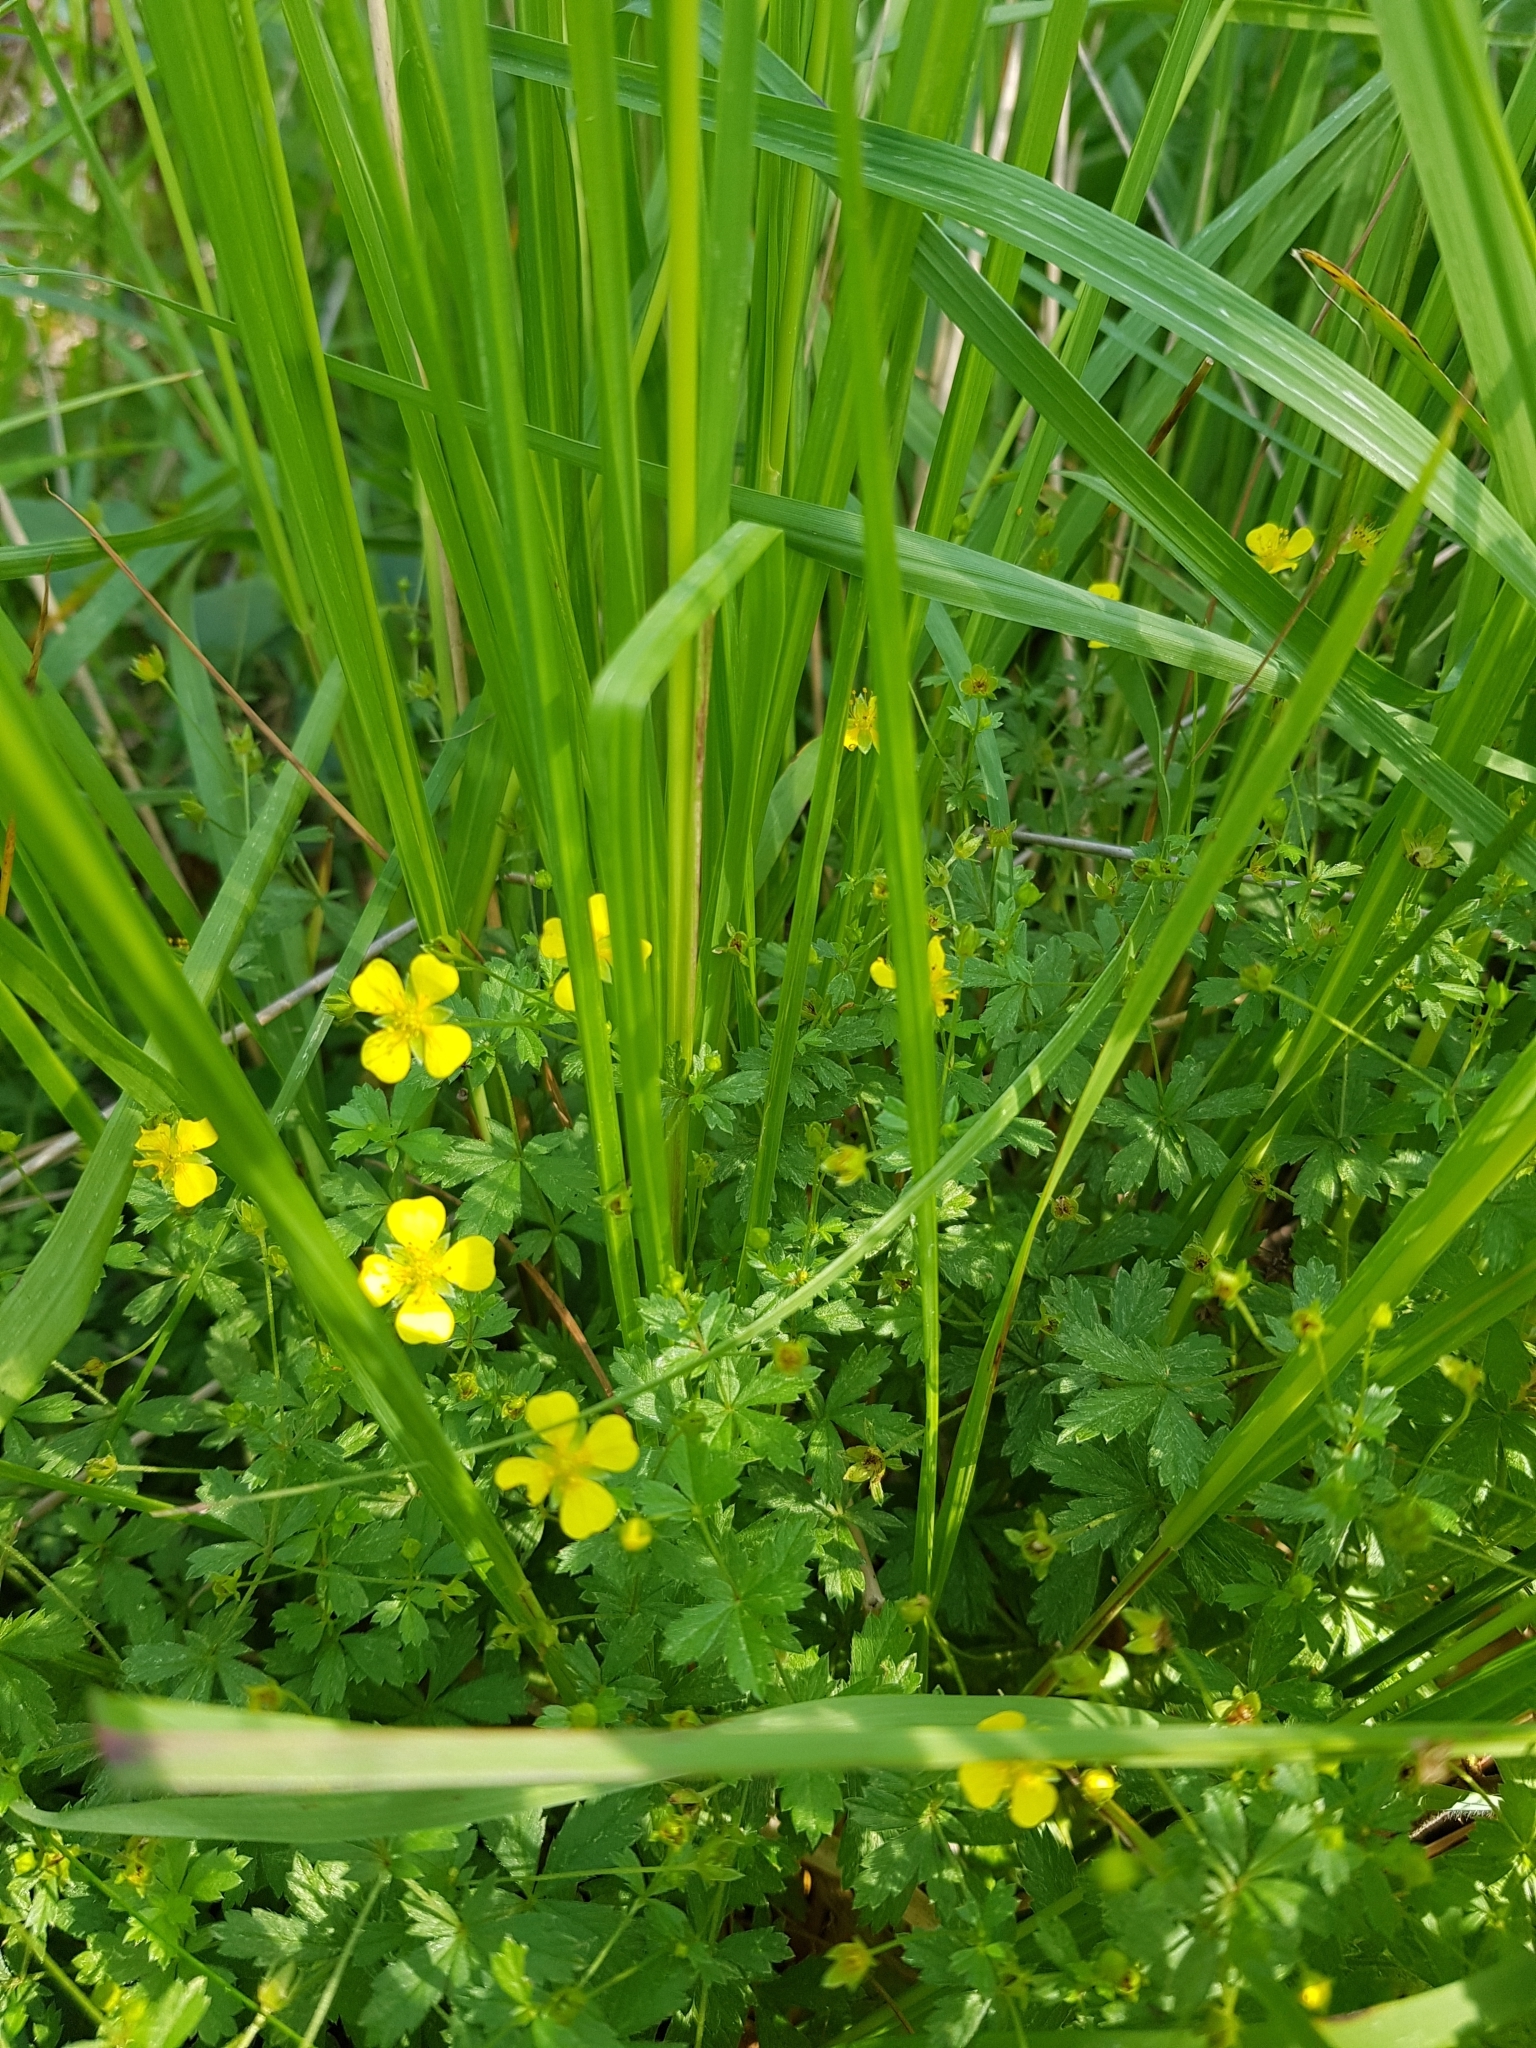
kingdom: Plantae
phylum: Tracheophyta
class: Magnoliopsida
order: Rosales
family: Rosaceae
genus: Potentilla
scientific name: Potentilla erecta
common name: Tormentil
